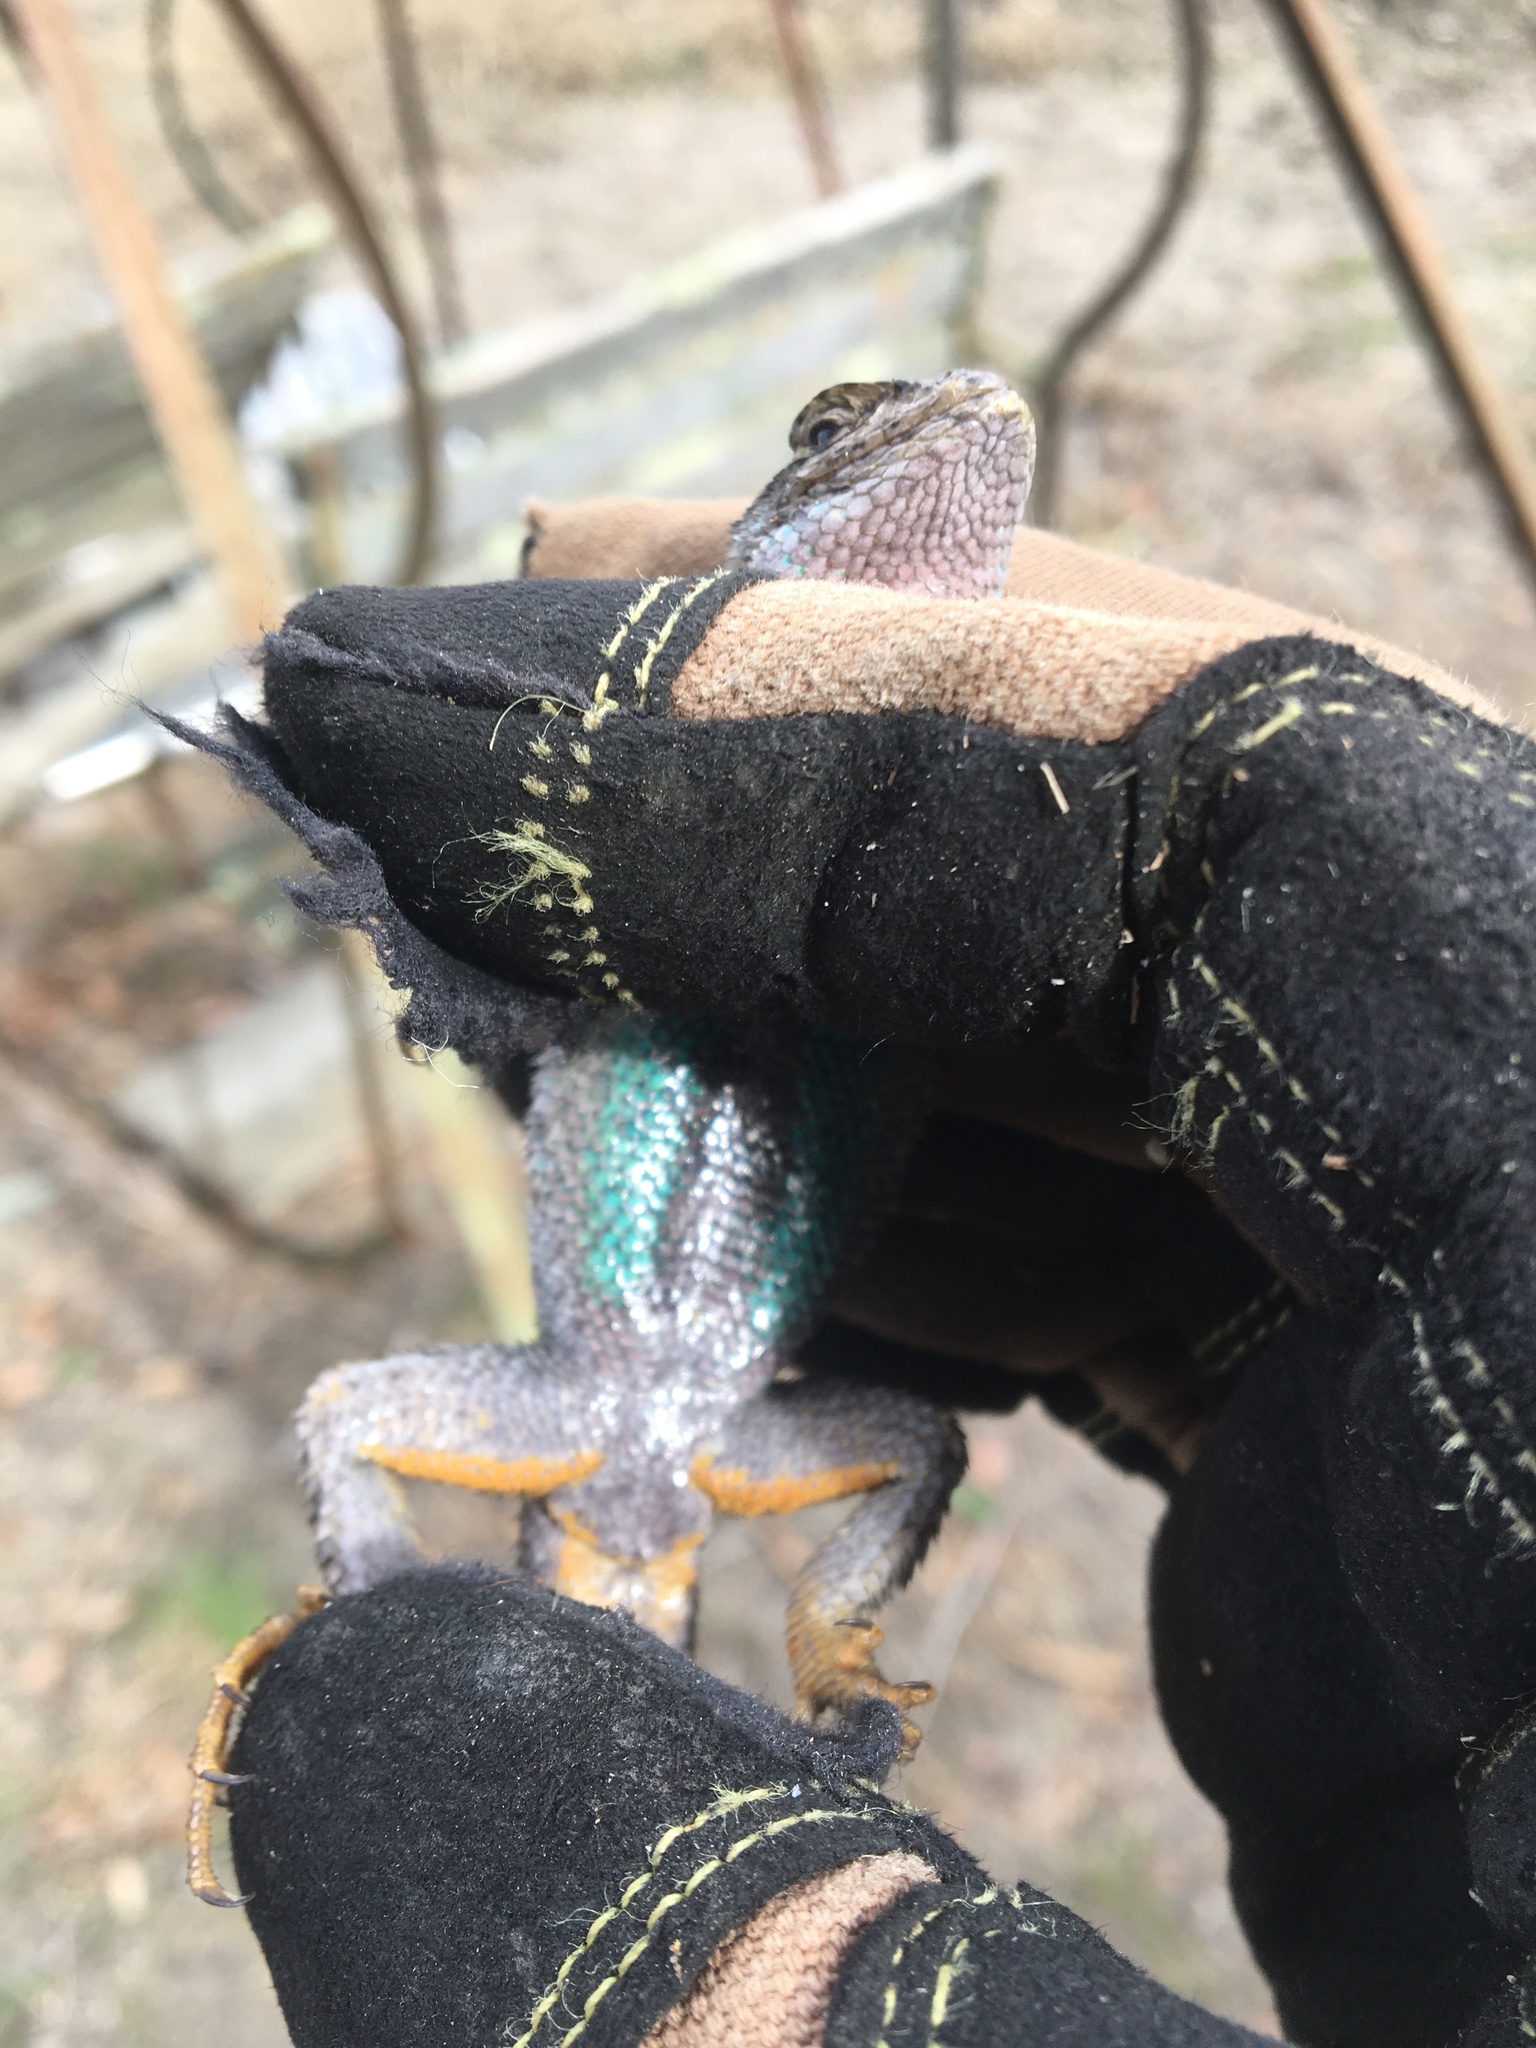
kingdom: Animalia
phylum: Chordata
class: Squamata
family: Phrynosomatidae
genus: Sceloporus
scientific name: Sceloporus occidentalis
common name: Western fence lizard
